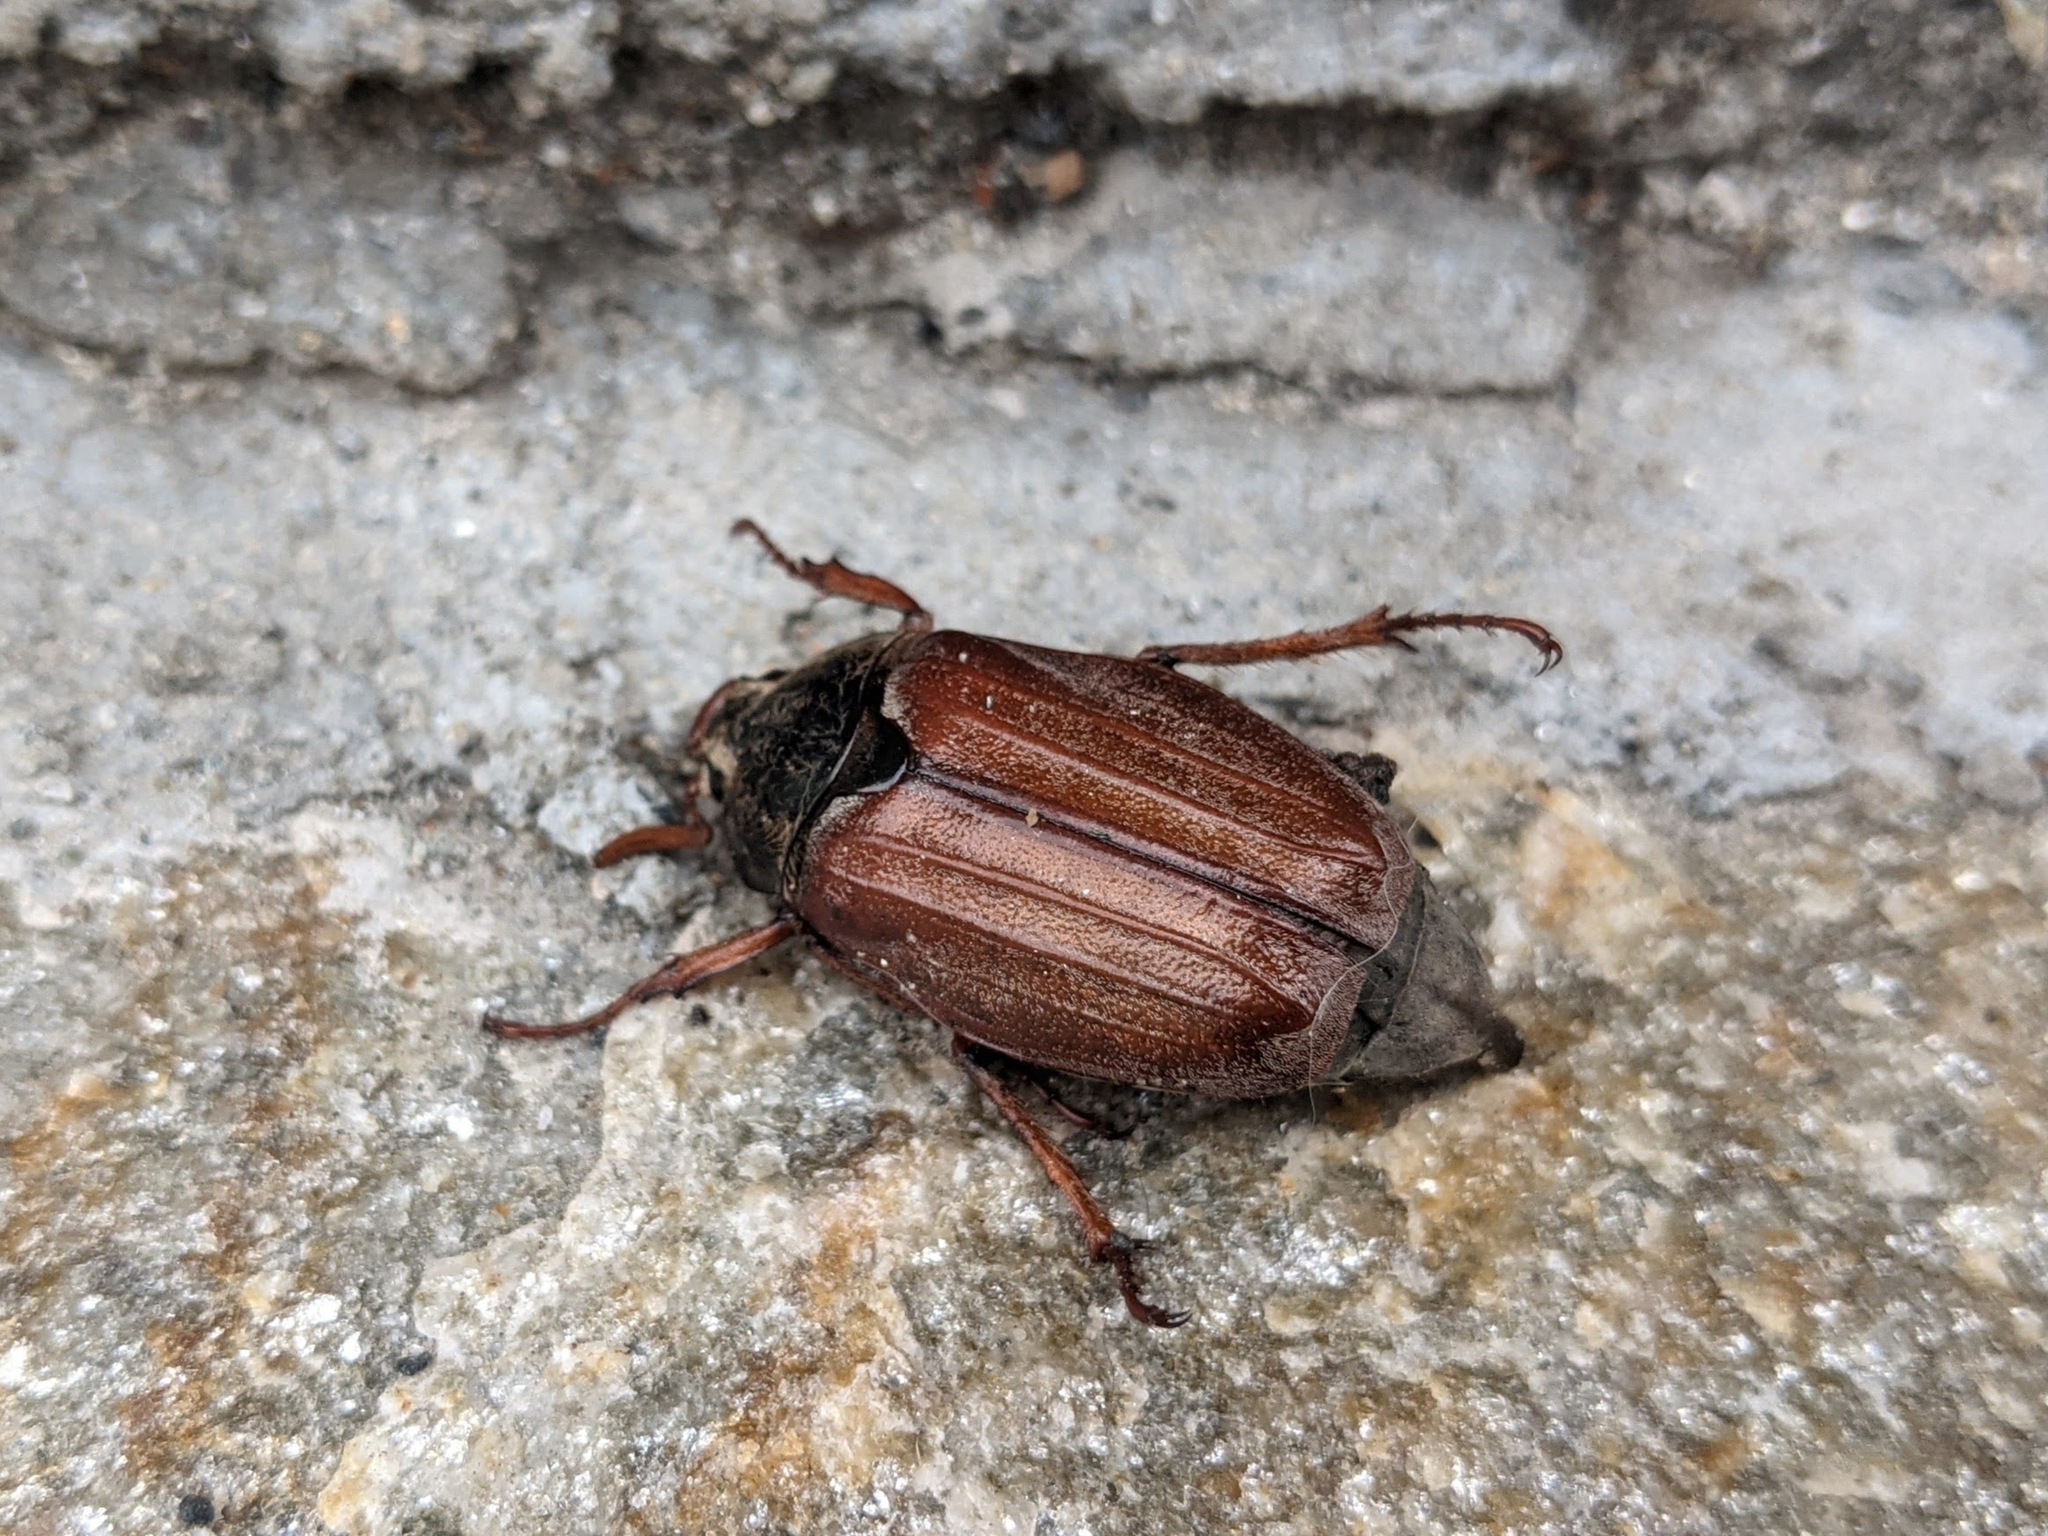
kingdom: Animalia
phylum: Arthropoda
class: Insecta
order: Coleoptera
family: Scarabaeidae
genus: Melolontha
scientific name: Melolontha melolontha
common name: Cockchafer maybeetle
